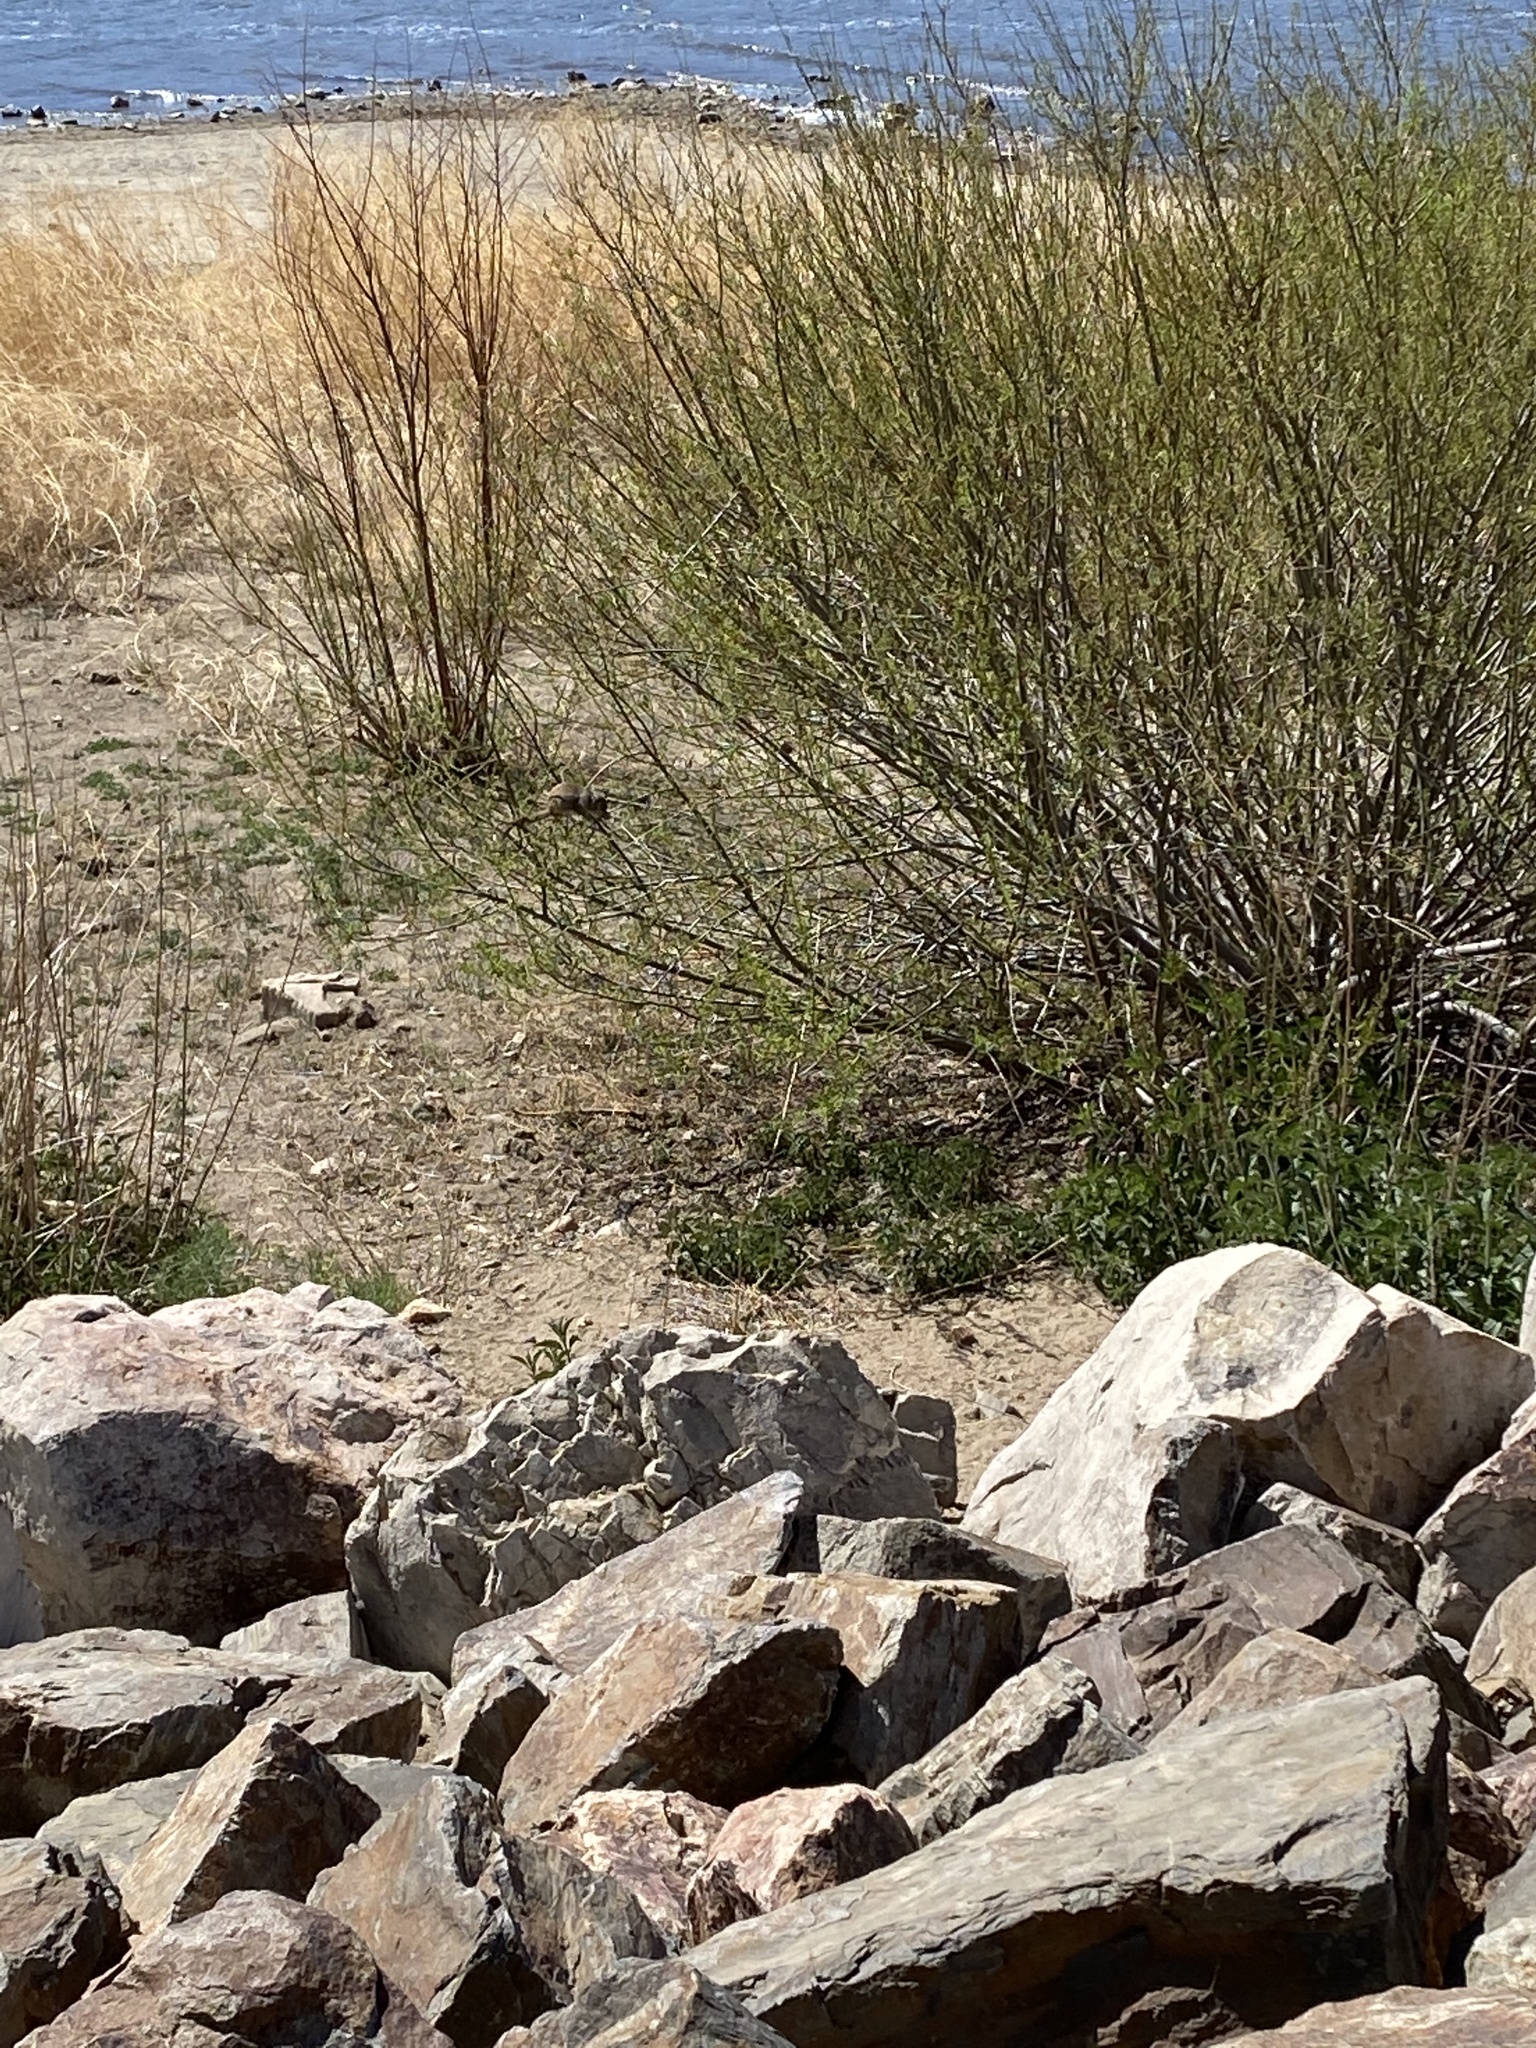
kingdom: Animalia
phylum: Chordata
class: Mammalia
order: Rodentia
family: Sciuridae
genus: Otospermophilus
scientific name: Otospermophilus beecheyi
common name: California ground squirrel
